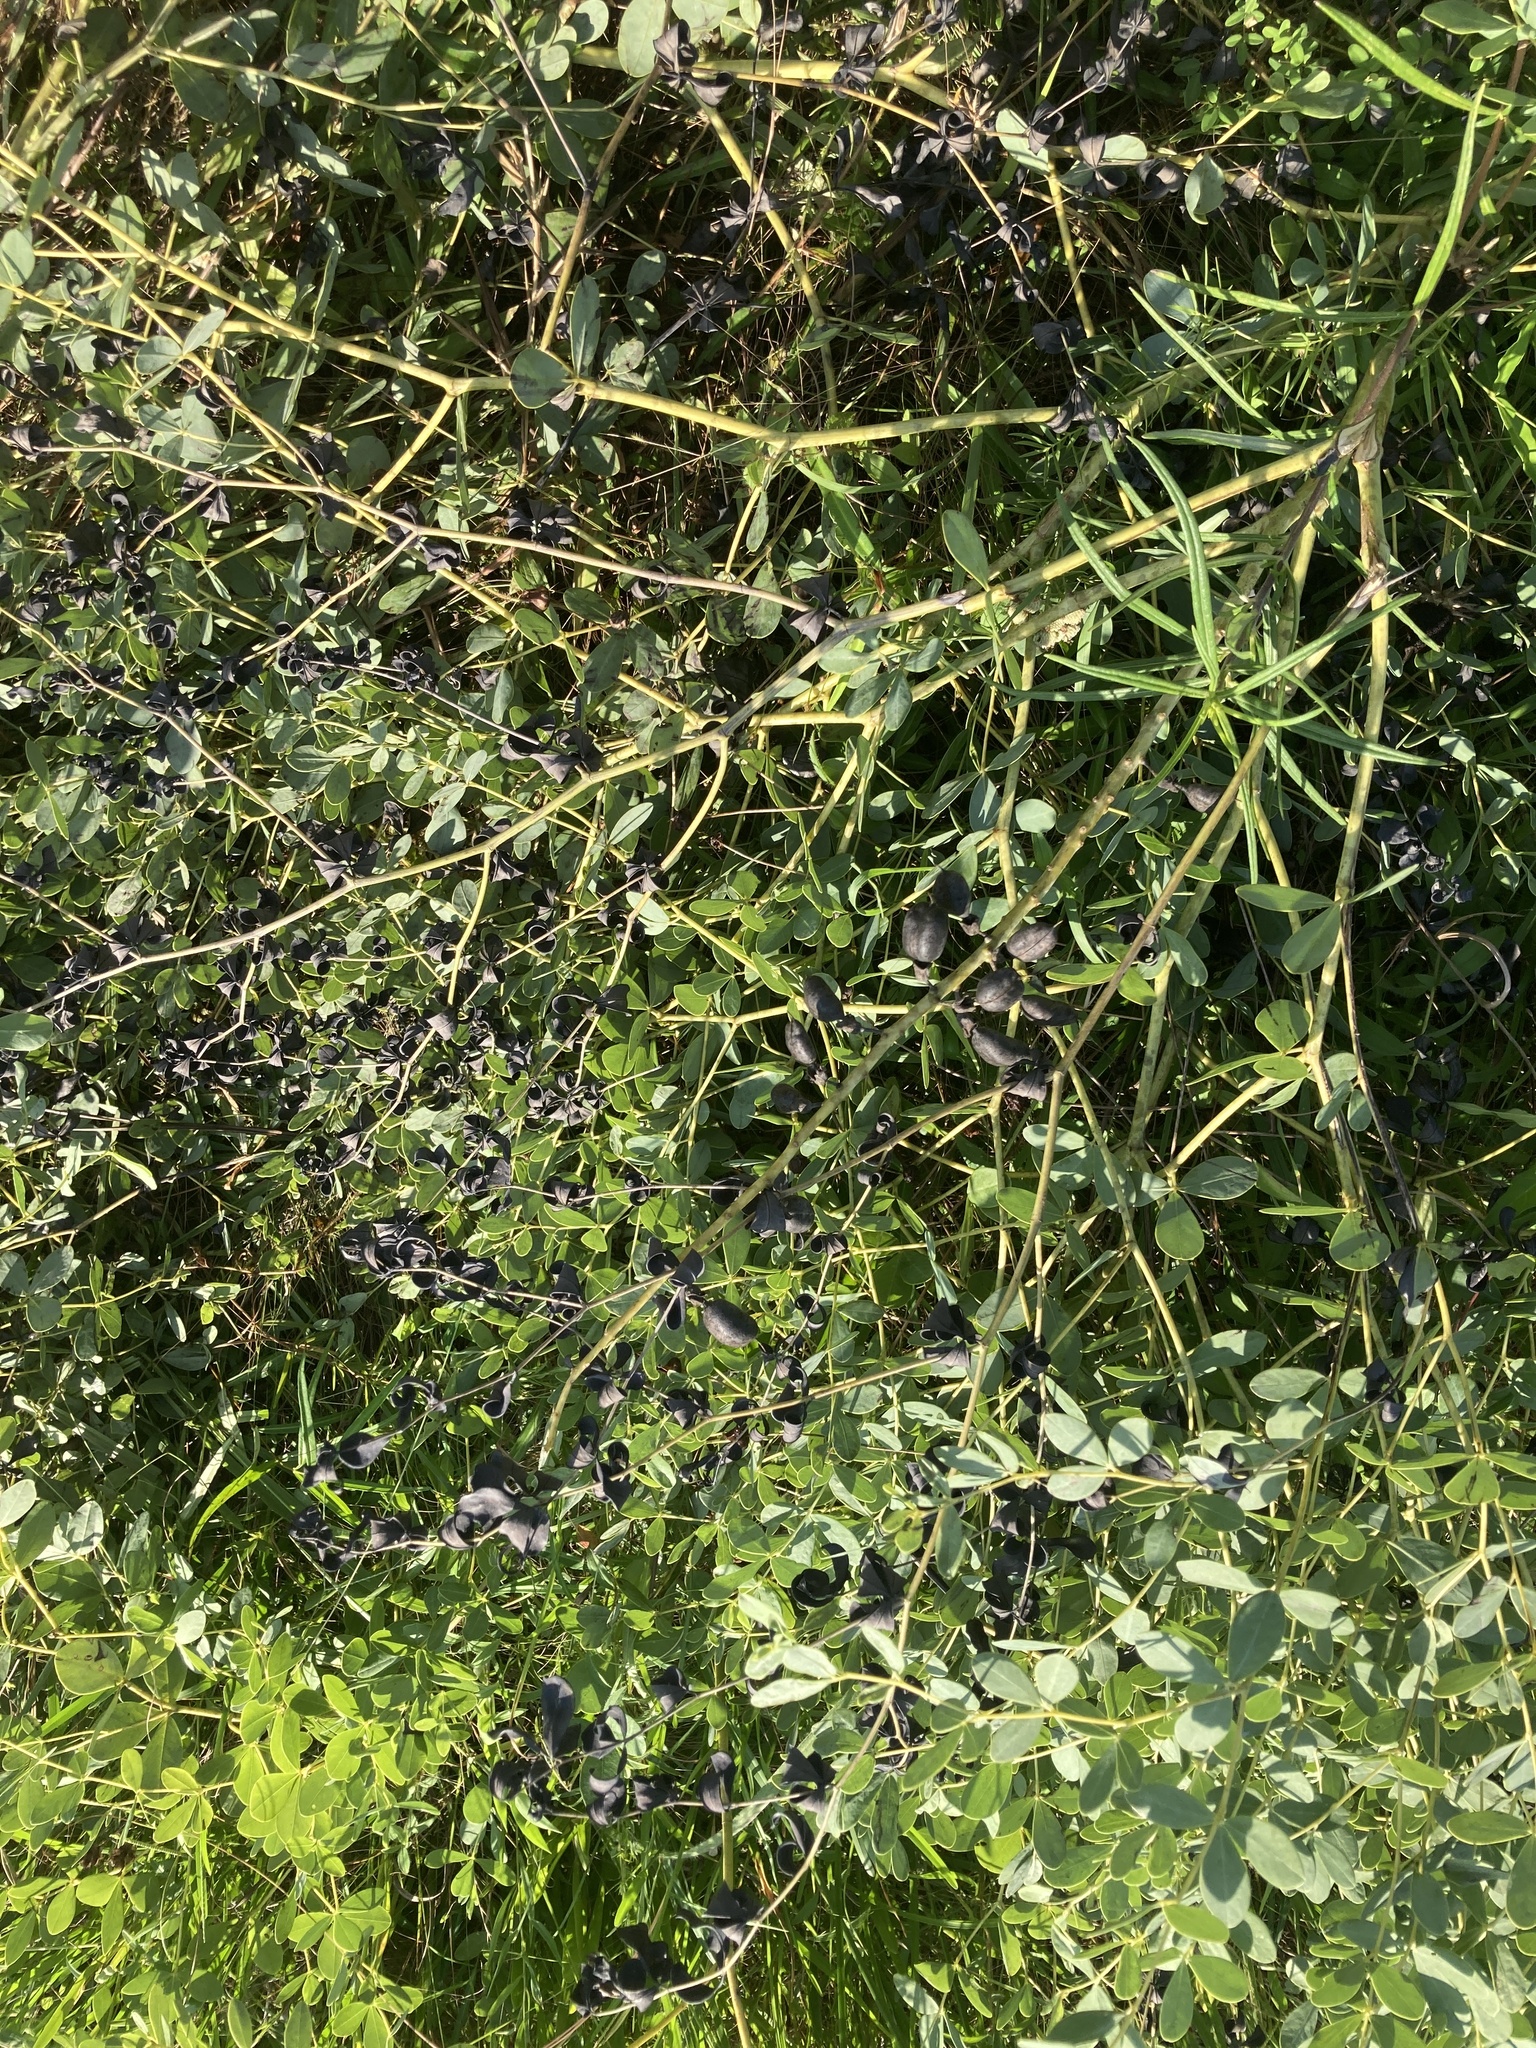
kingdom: Plantae
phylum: Tracheophyta
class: Magnoliopsida
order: Fabales
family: Fabaceae
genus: Baptisia
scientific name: Baptisia alba
